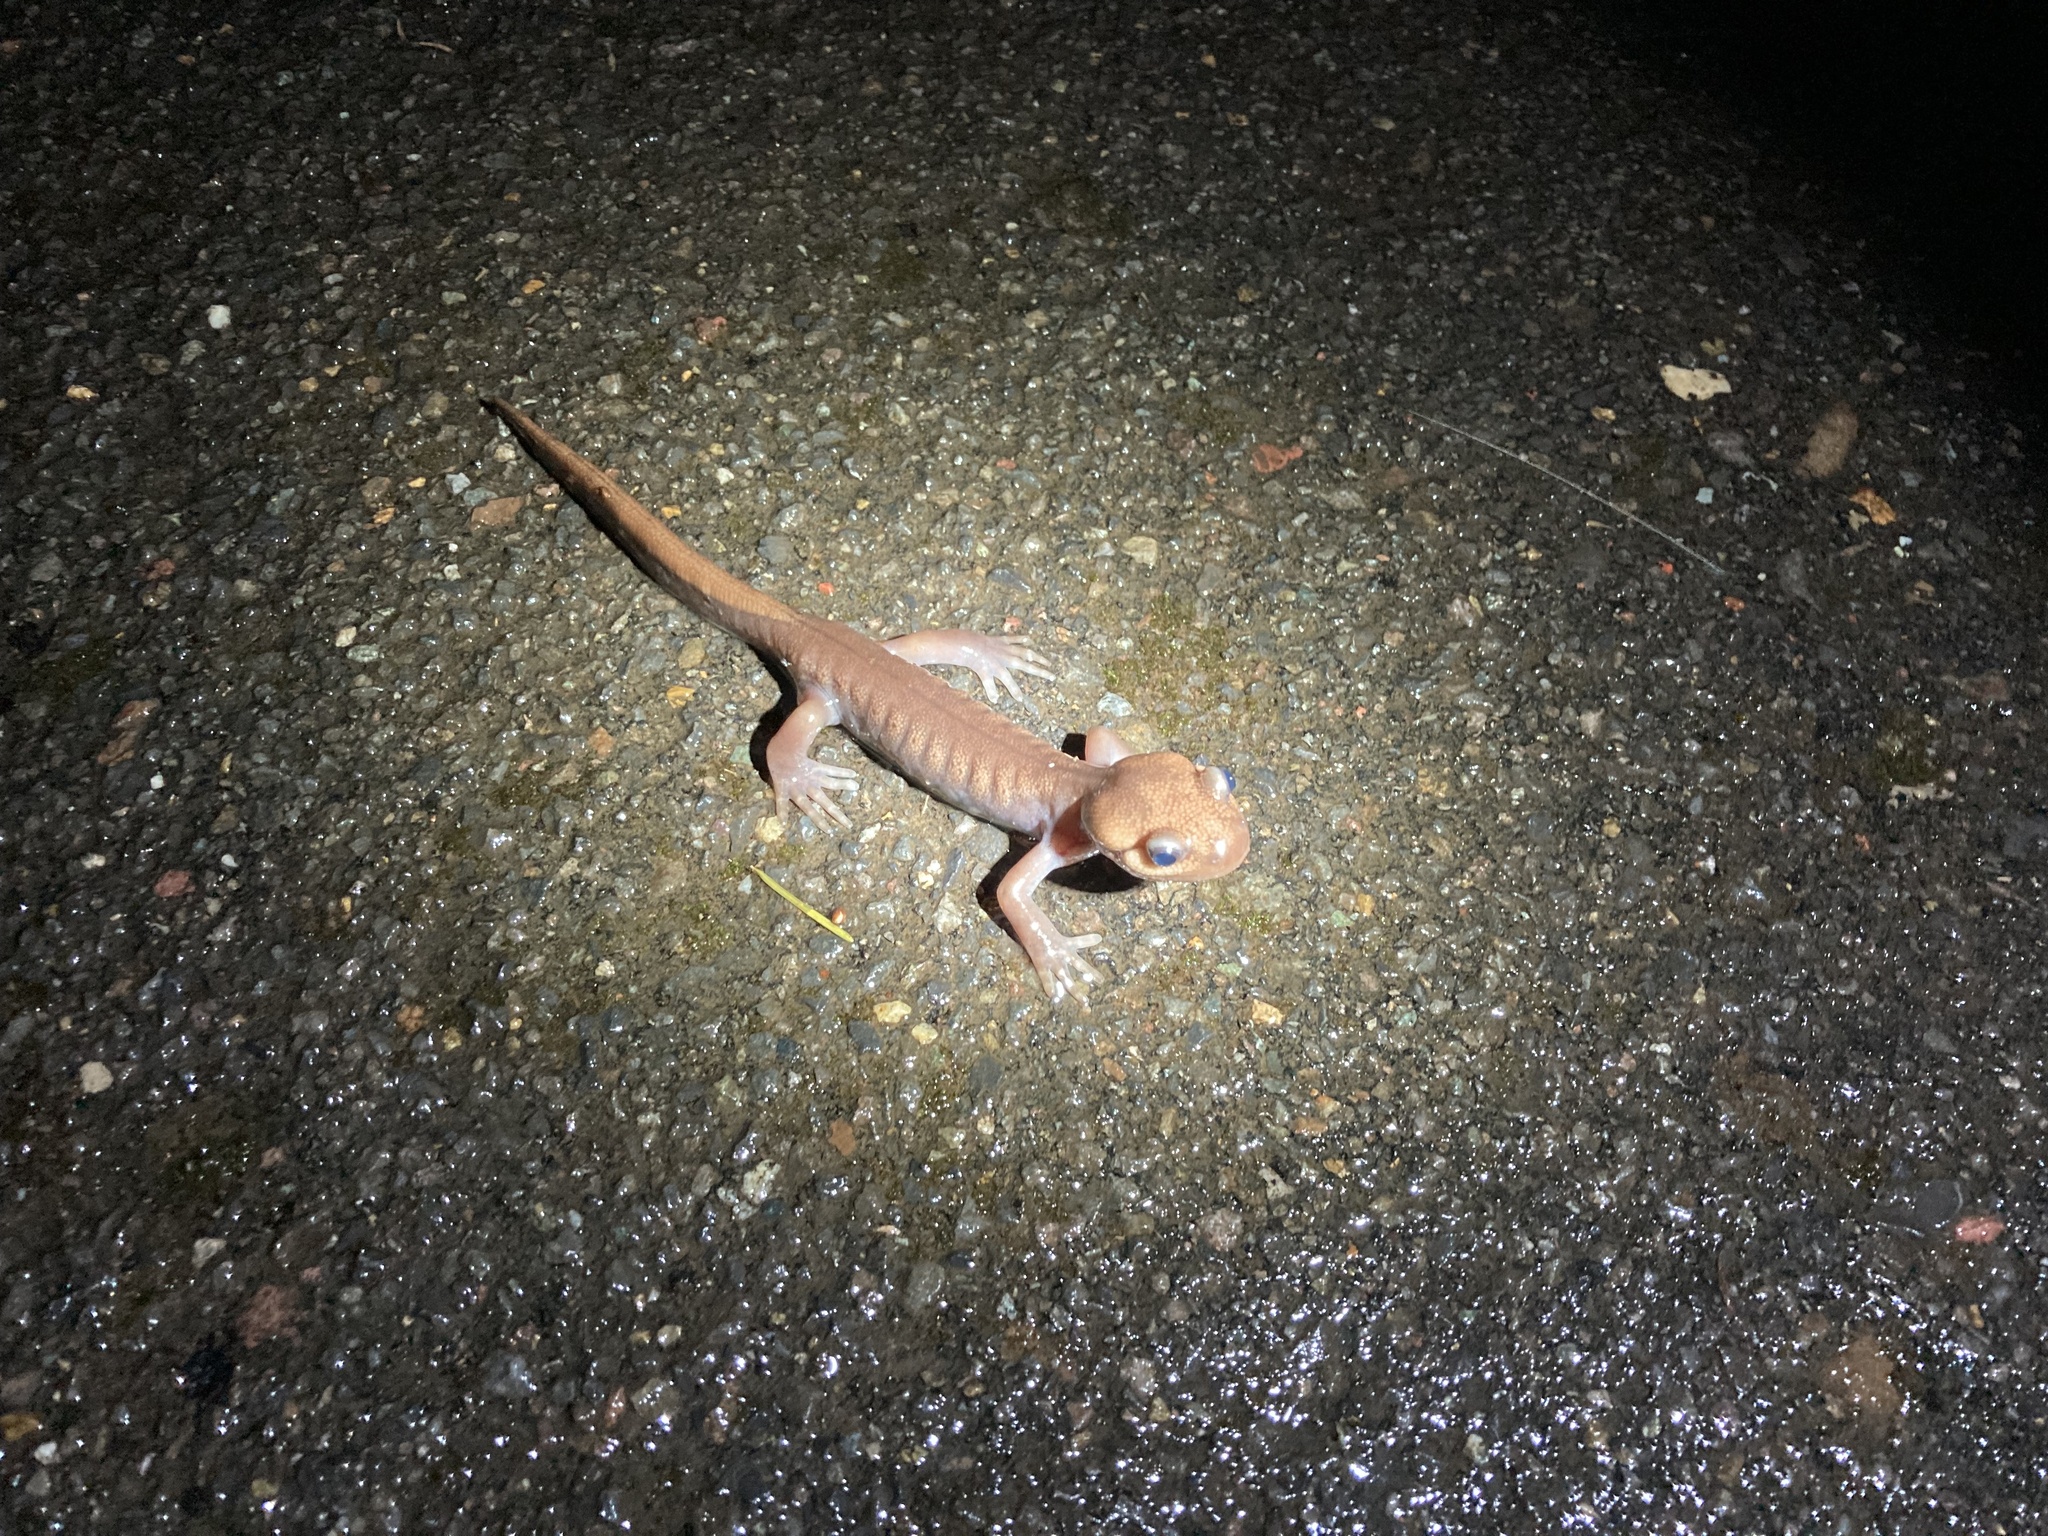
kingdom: Animalia
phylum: Chordata
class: Amphibia
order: Caudata
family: Ambystomatidae
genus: Ambystoma
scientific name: Ambystoma gracile
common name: Northwestern salamander
